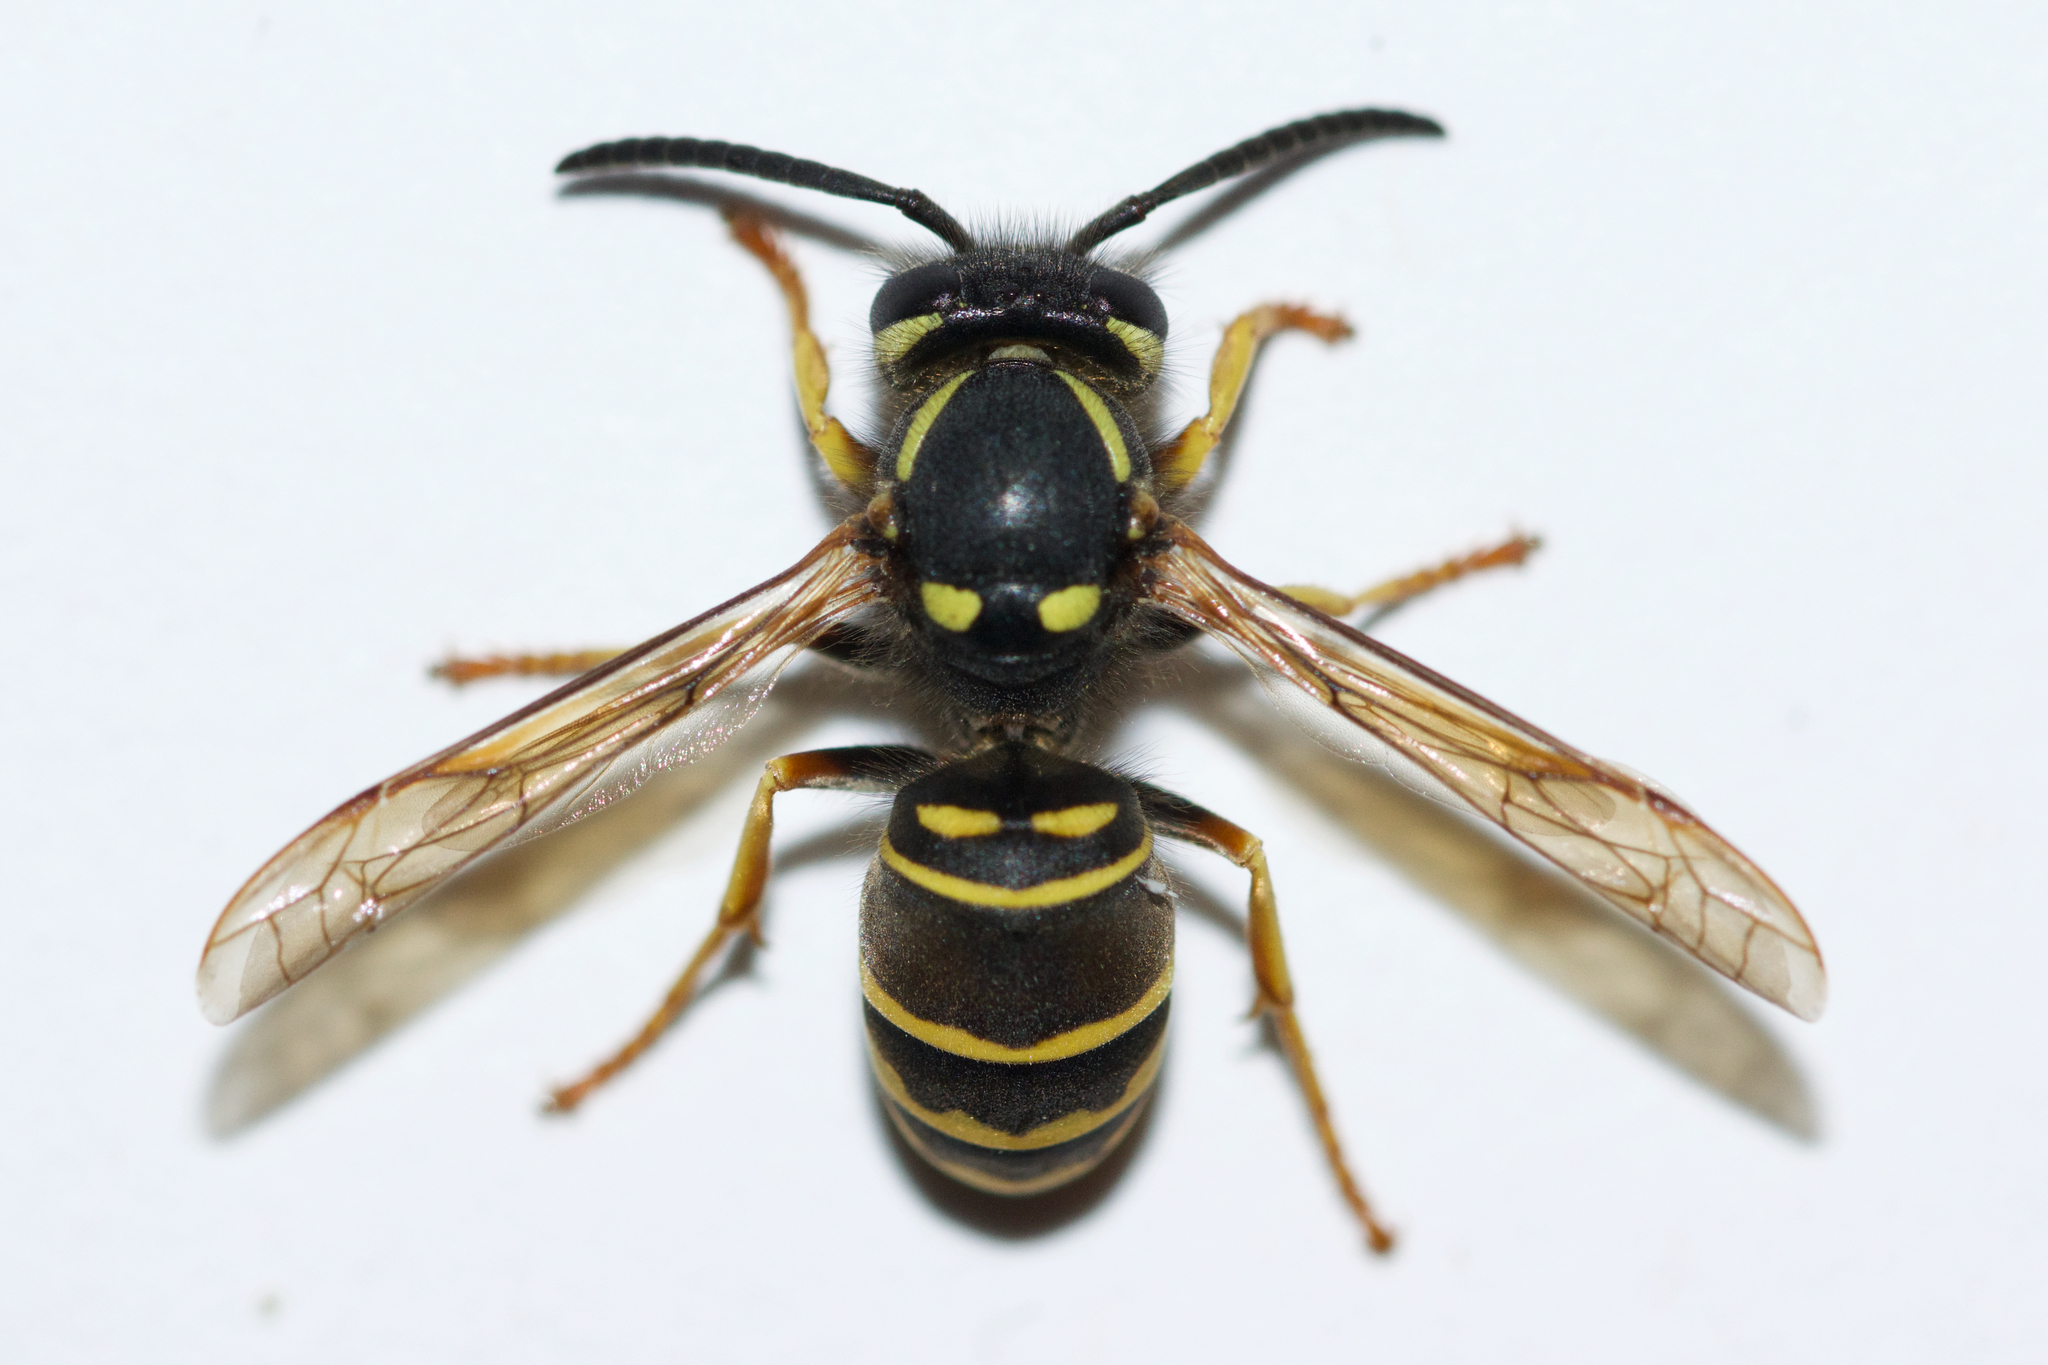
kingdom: Animalia
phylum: Arthropoda
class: Insecta
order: Hymenoptera
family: Vespidae
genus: Vespula
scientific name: Vespula vidua
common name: Widow yellowjacket
